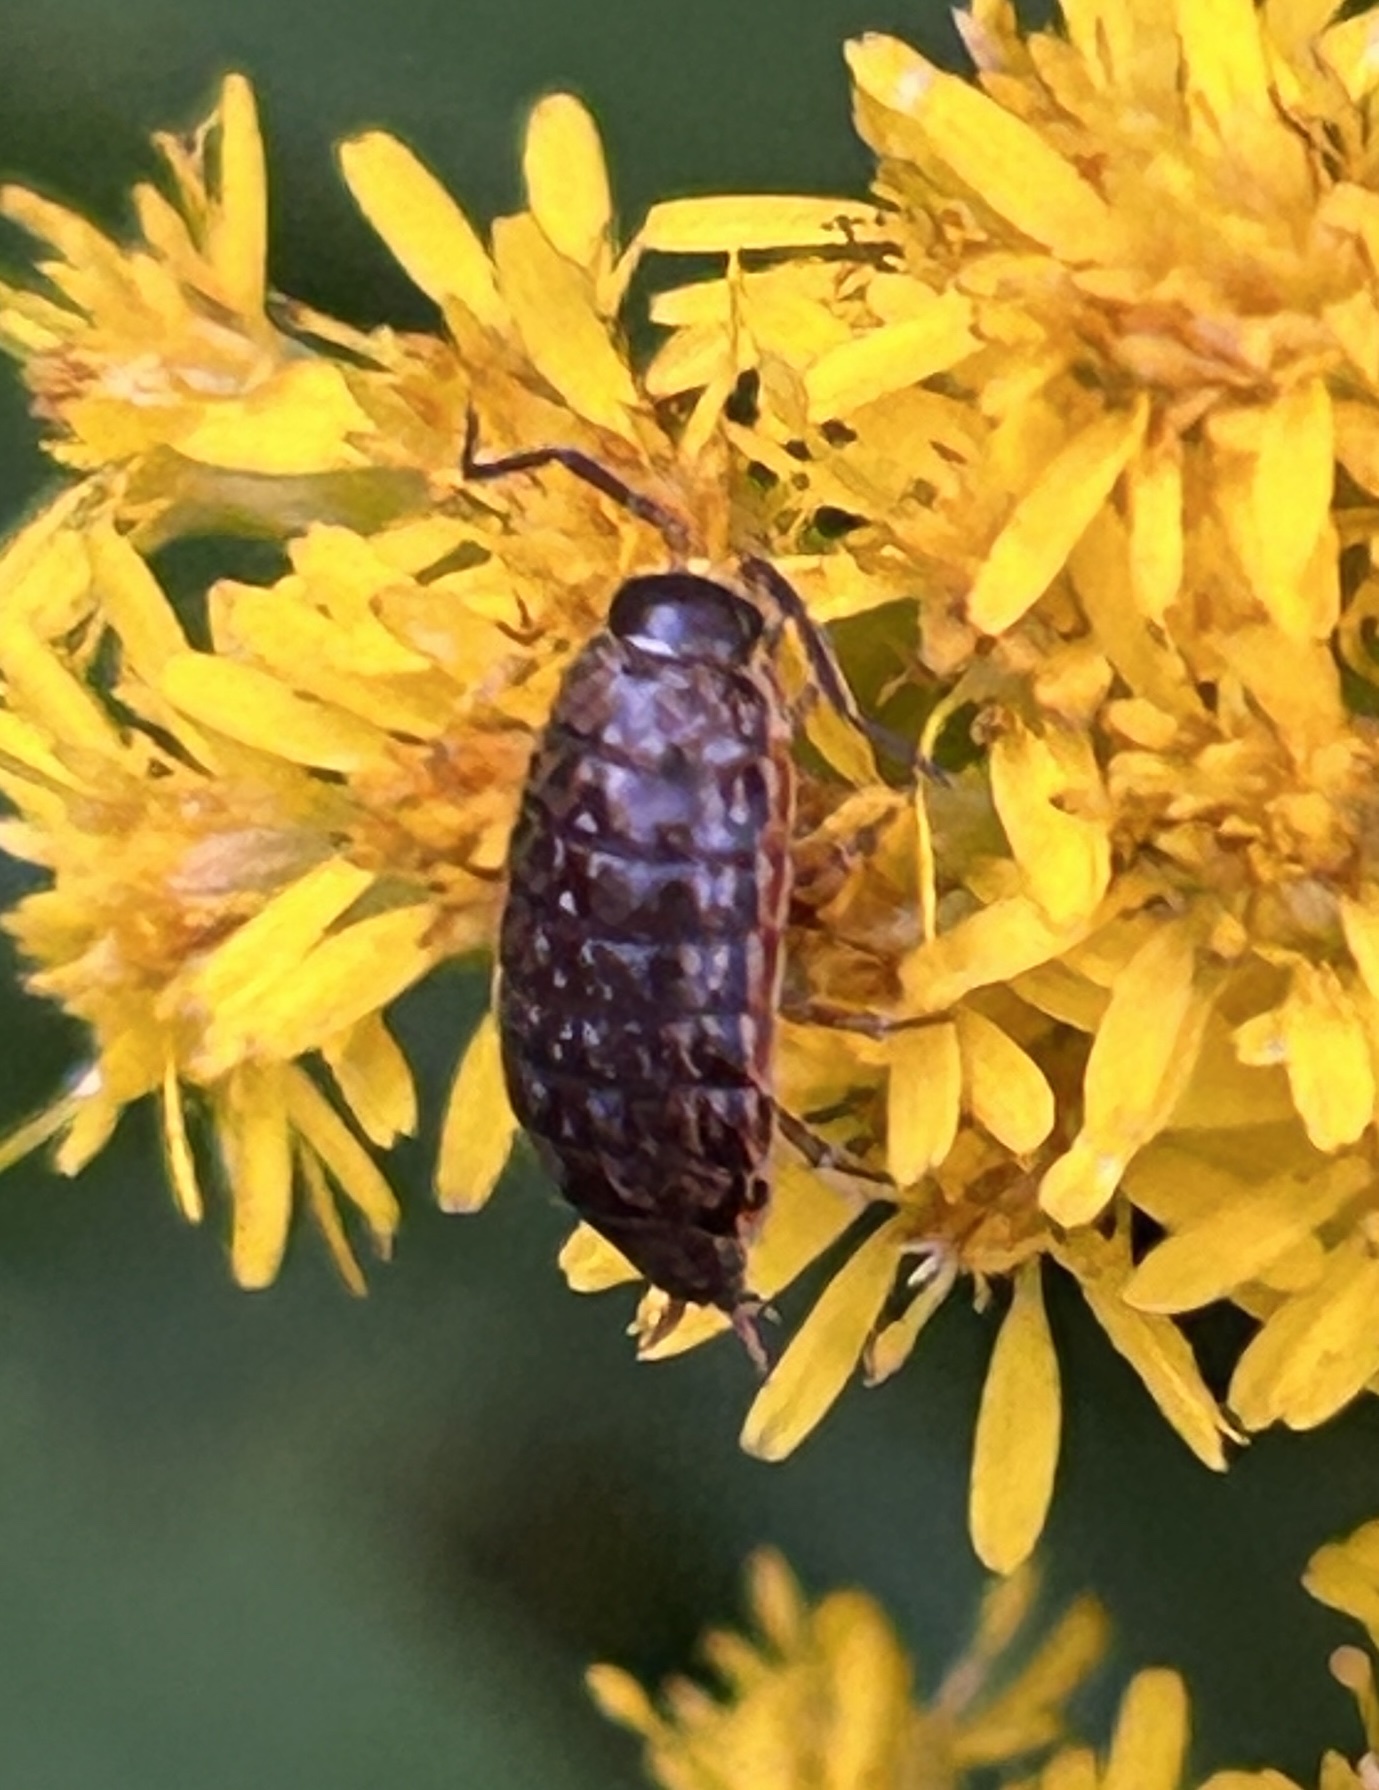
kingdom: Animalia
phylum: Arthropoda
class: Malacostraca
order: Isopoda
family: Philosciidae
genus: Philoscia
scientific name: Philoscia muscorum
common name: Common striped woodlouse
